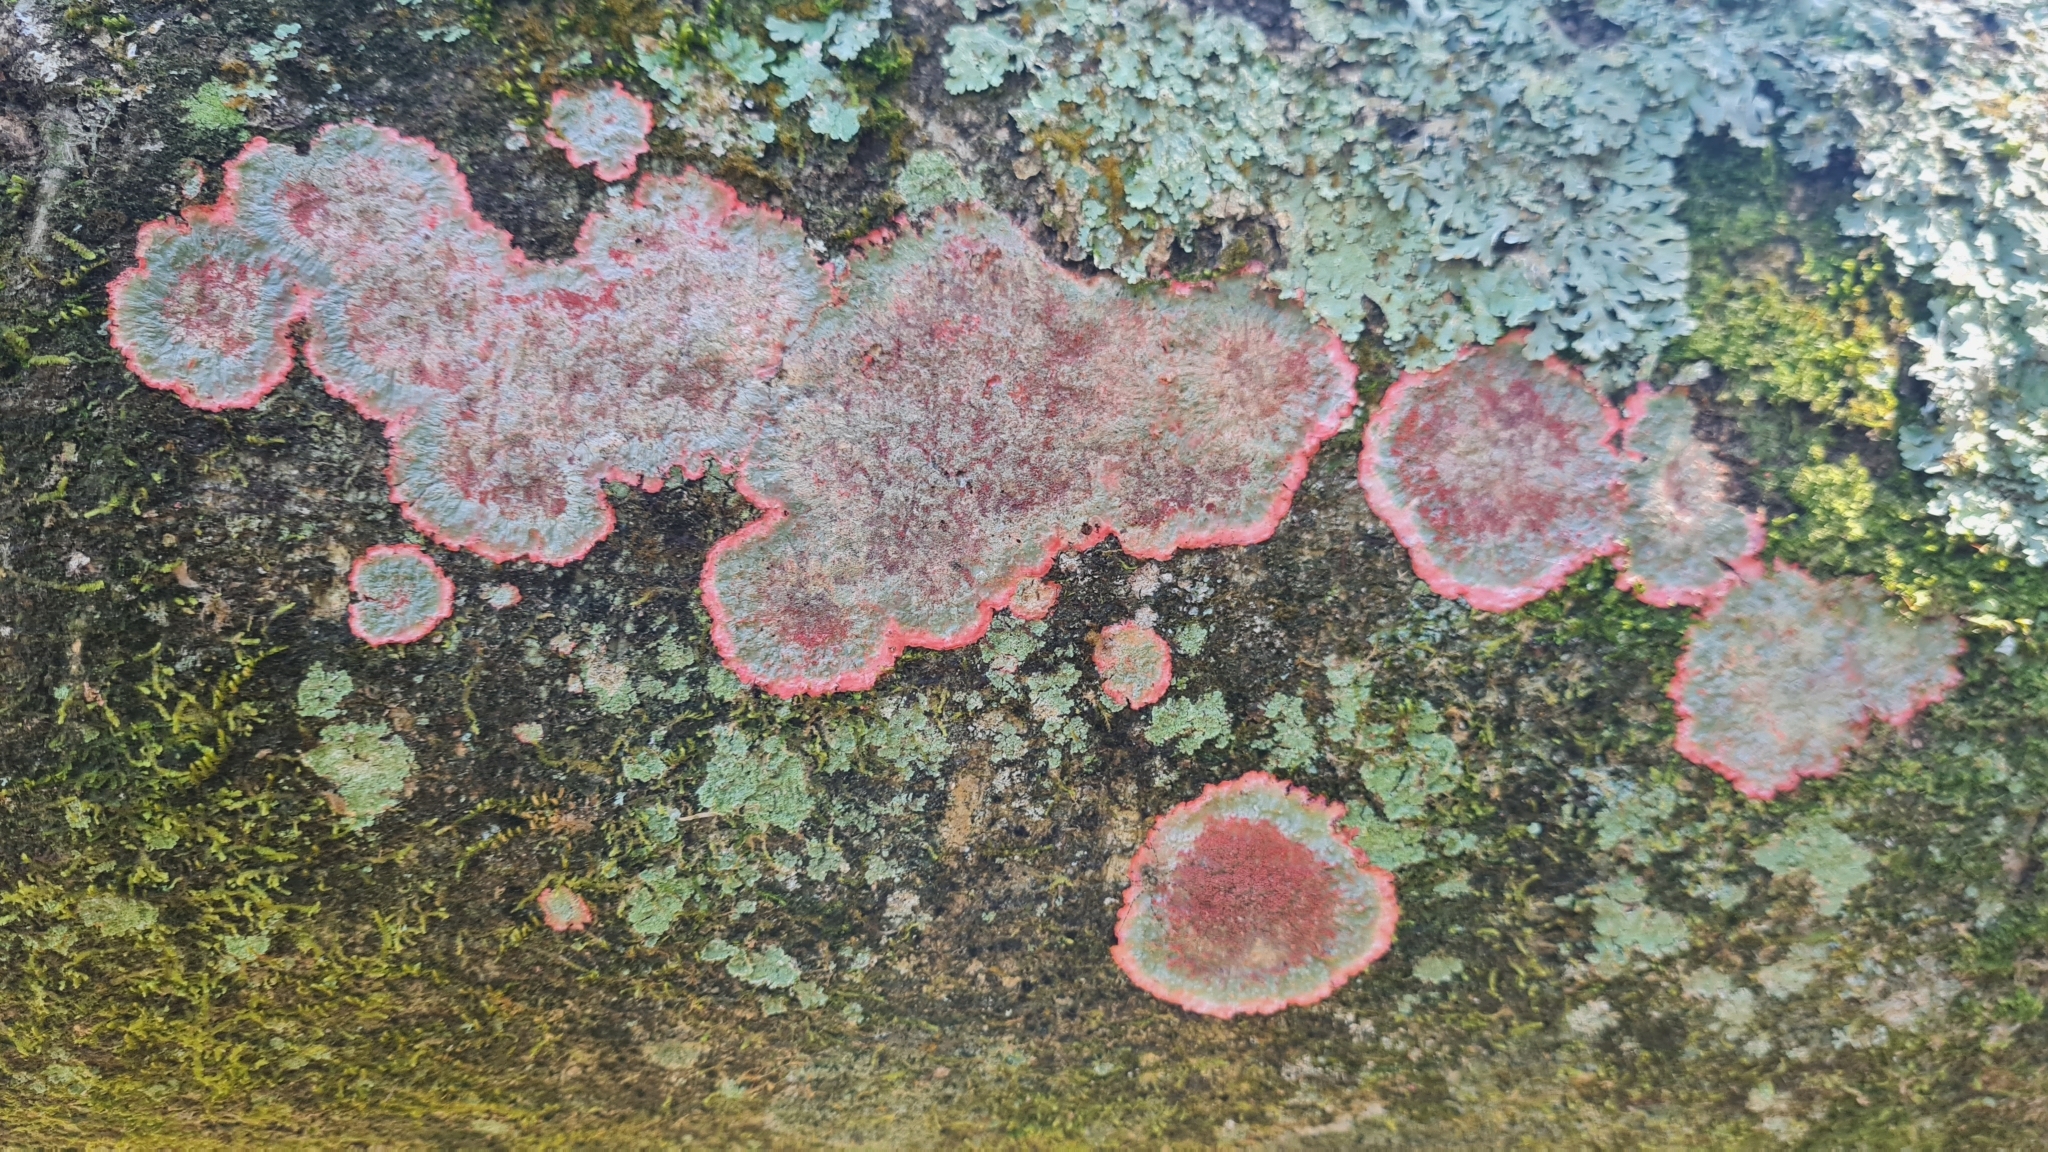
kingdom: Fungi
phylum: Ascomycota
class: Arthoniomycetes
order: Arthoniales
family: Arthoniaceae
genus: Herpothallon
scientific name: Herpothallon rubrocinctum
